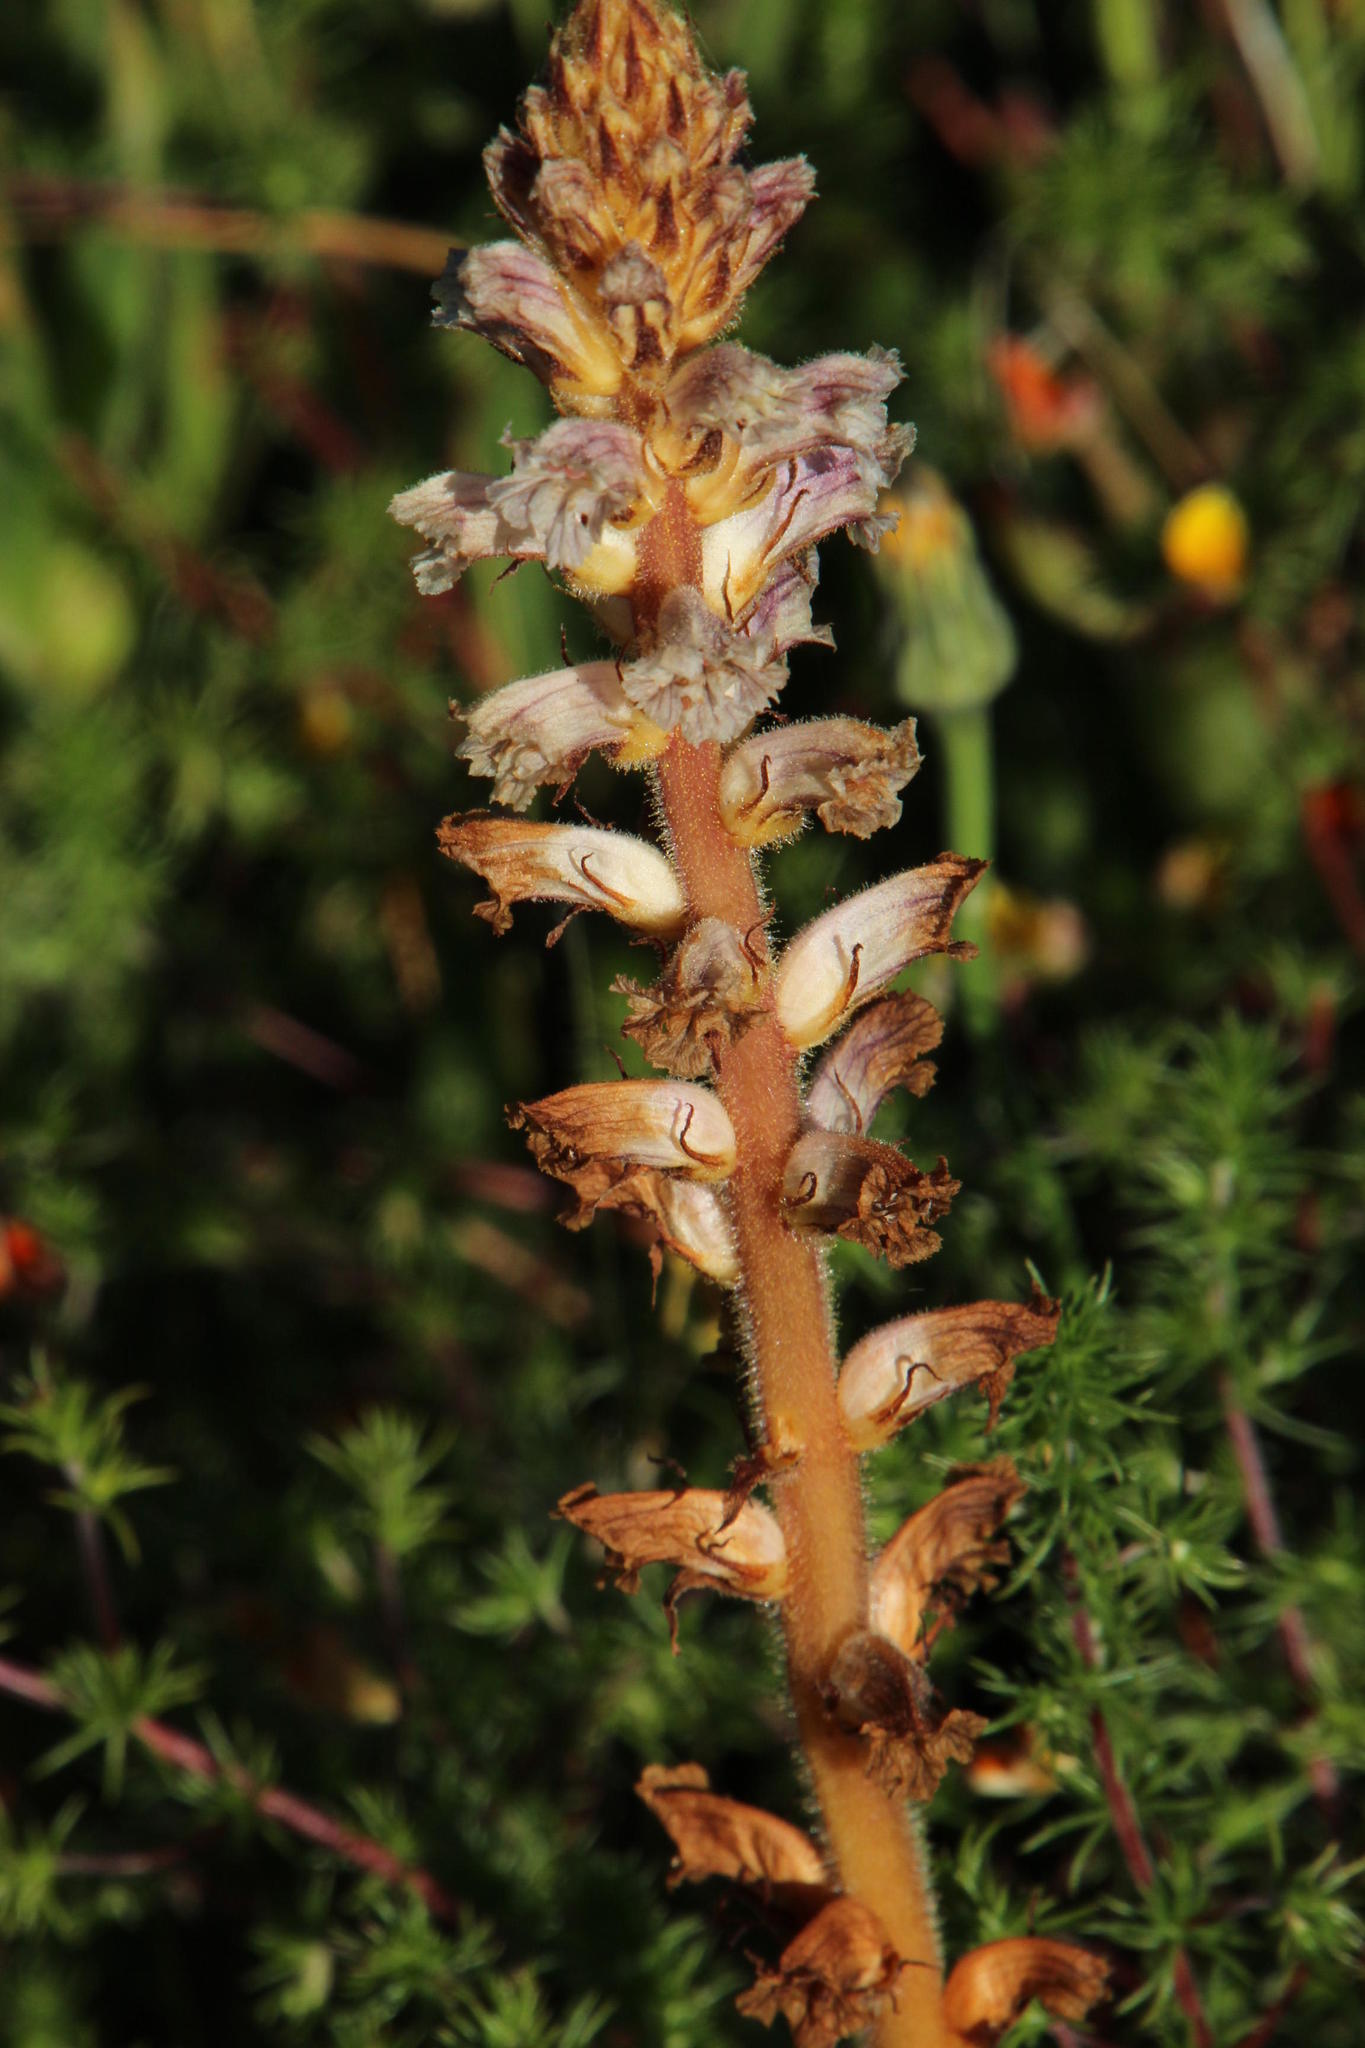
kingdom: Plantae
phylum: Tracheophyta
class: Magnoliopsida
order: Lamiales
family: Orobanchaceae
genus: Orobanche
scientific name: Orobanche minor
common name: Common broomrape
